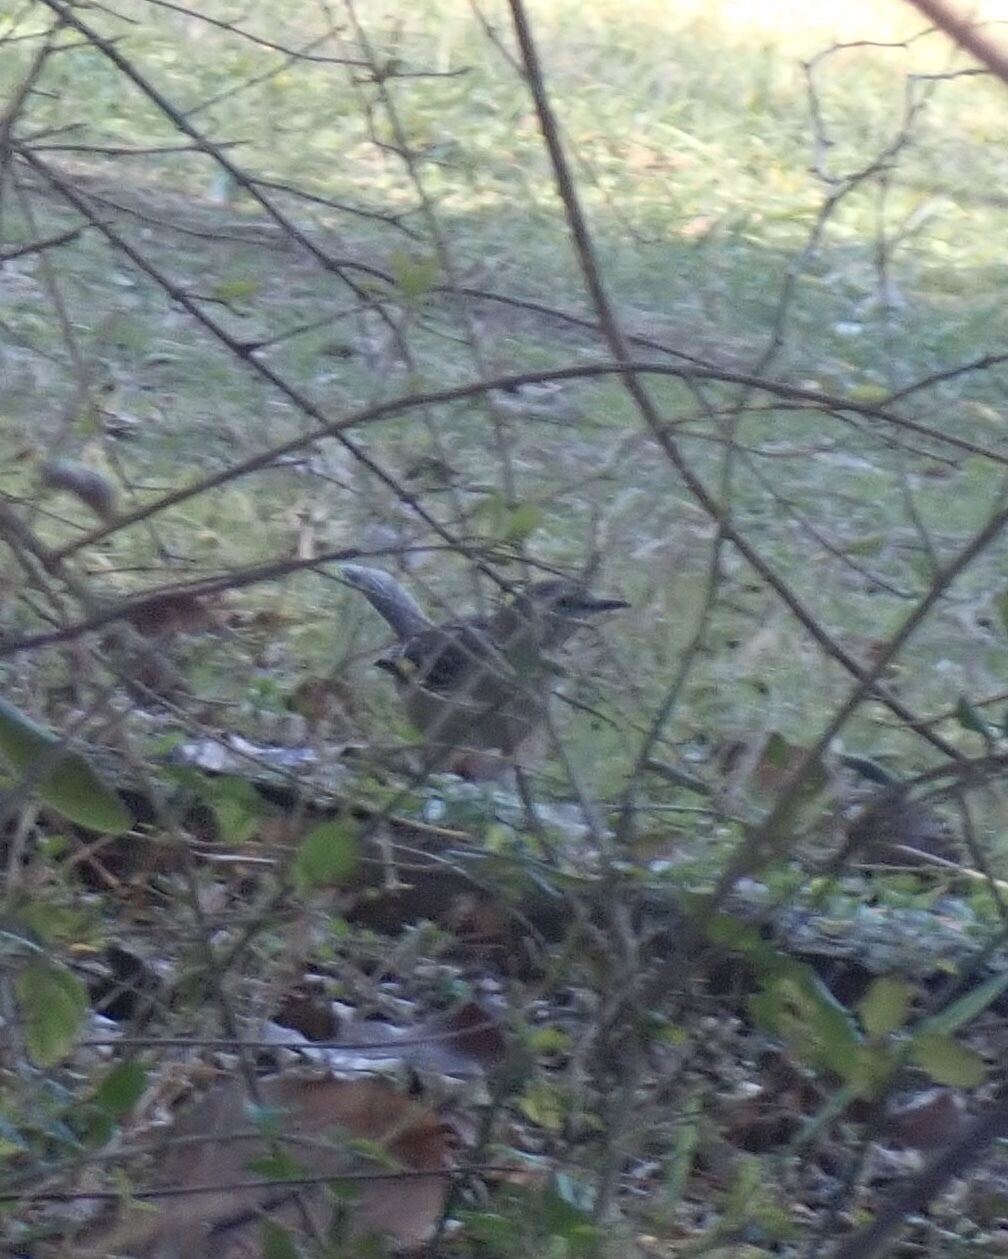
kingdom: Animalia
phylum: Chordata
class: Aves
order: Passeriformes
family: Mimidae
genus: Mimus
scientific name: Mimus polyglottos
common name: Northern mockingbird
